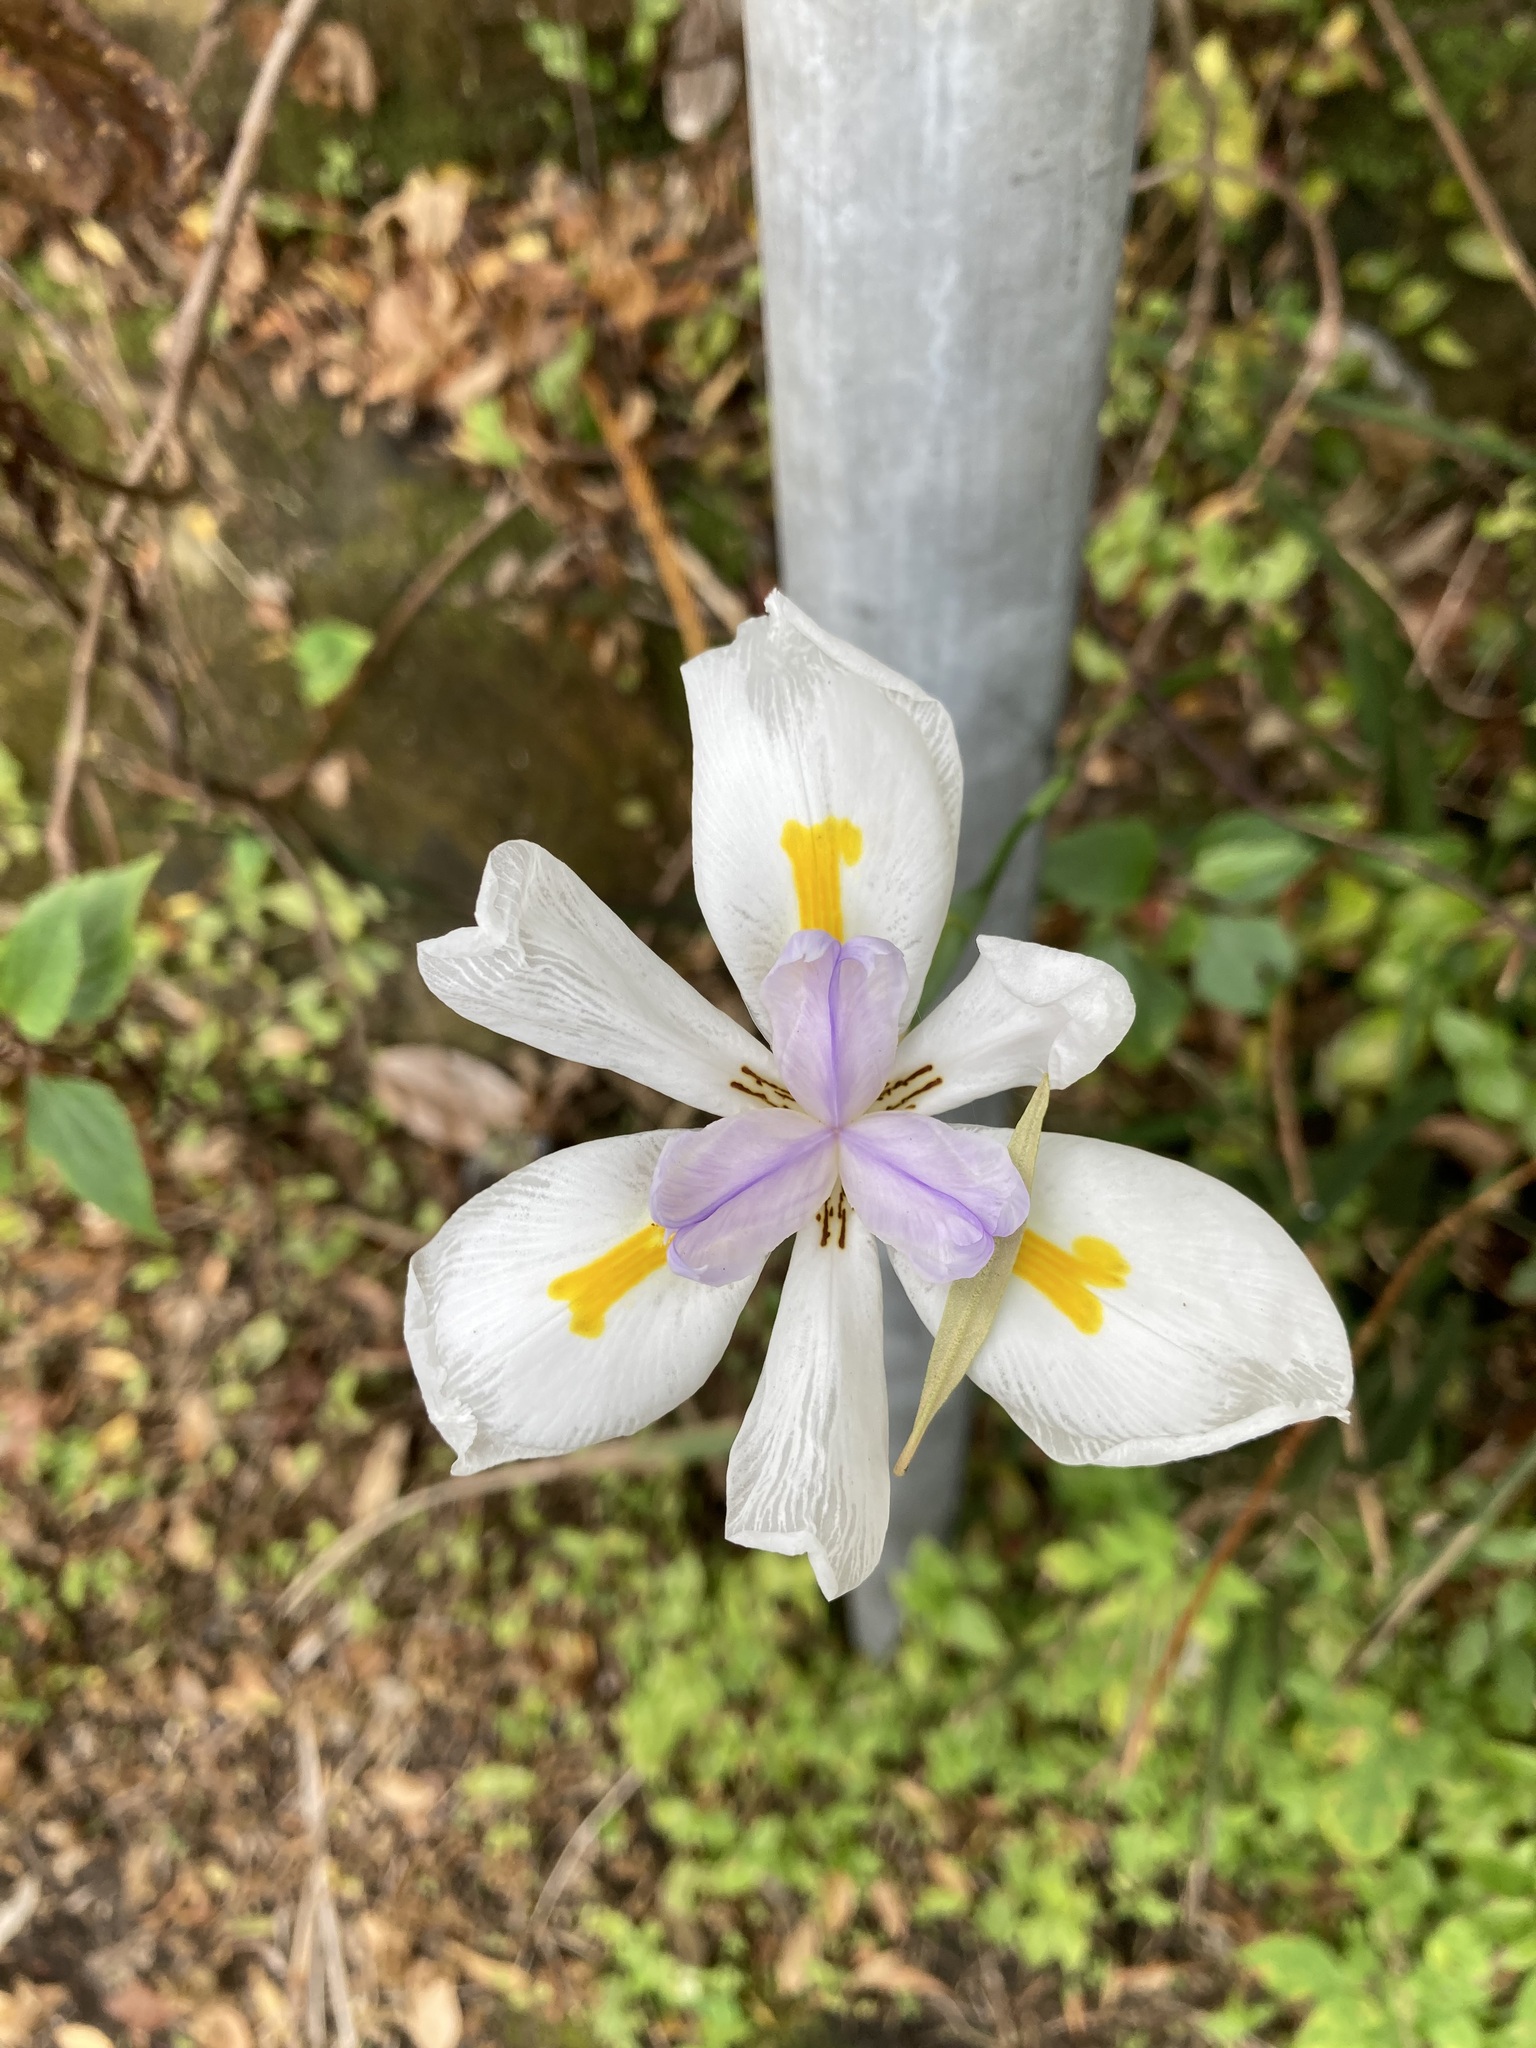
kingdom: Plantae
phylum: Tracheophyta
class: Liliopsida
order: Asparagales
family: Iridaceae
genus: Dietes
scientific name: Dietes grandiflora
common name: Wild iris
